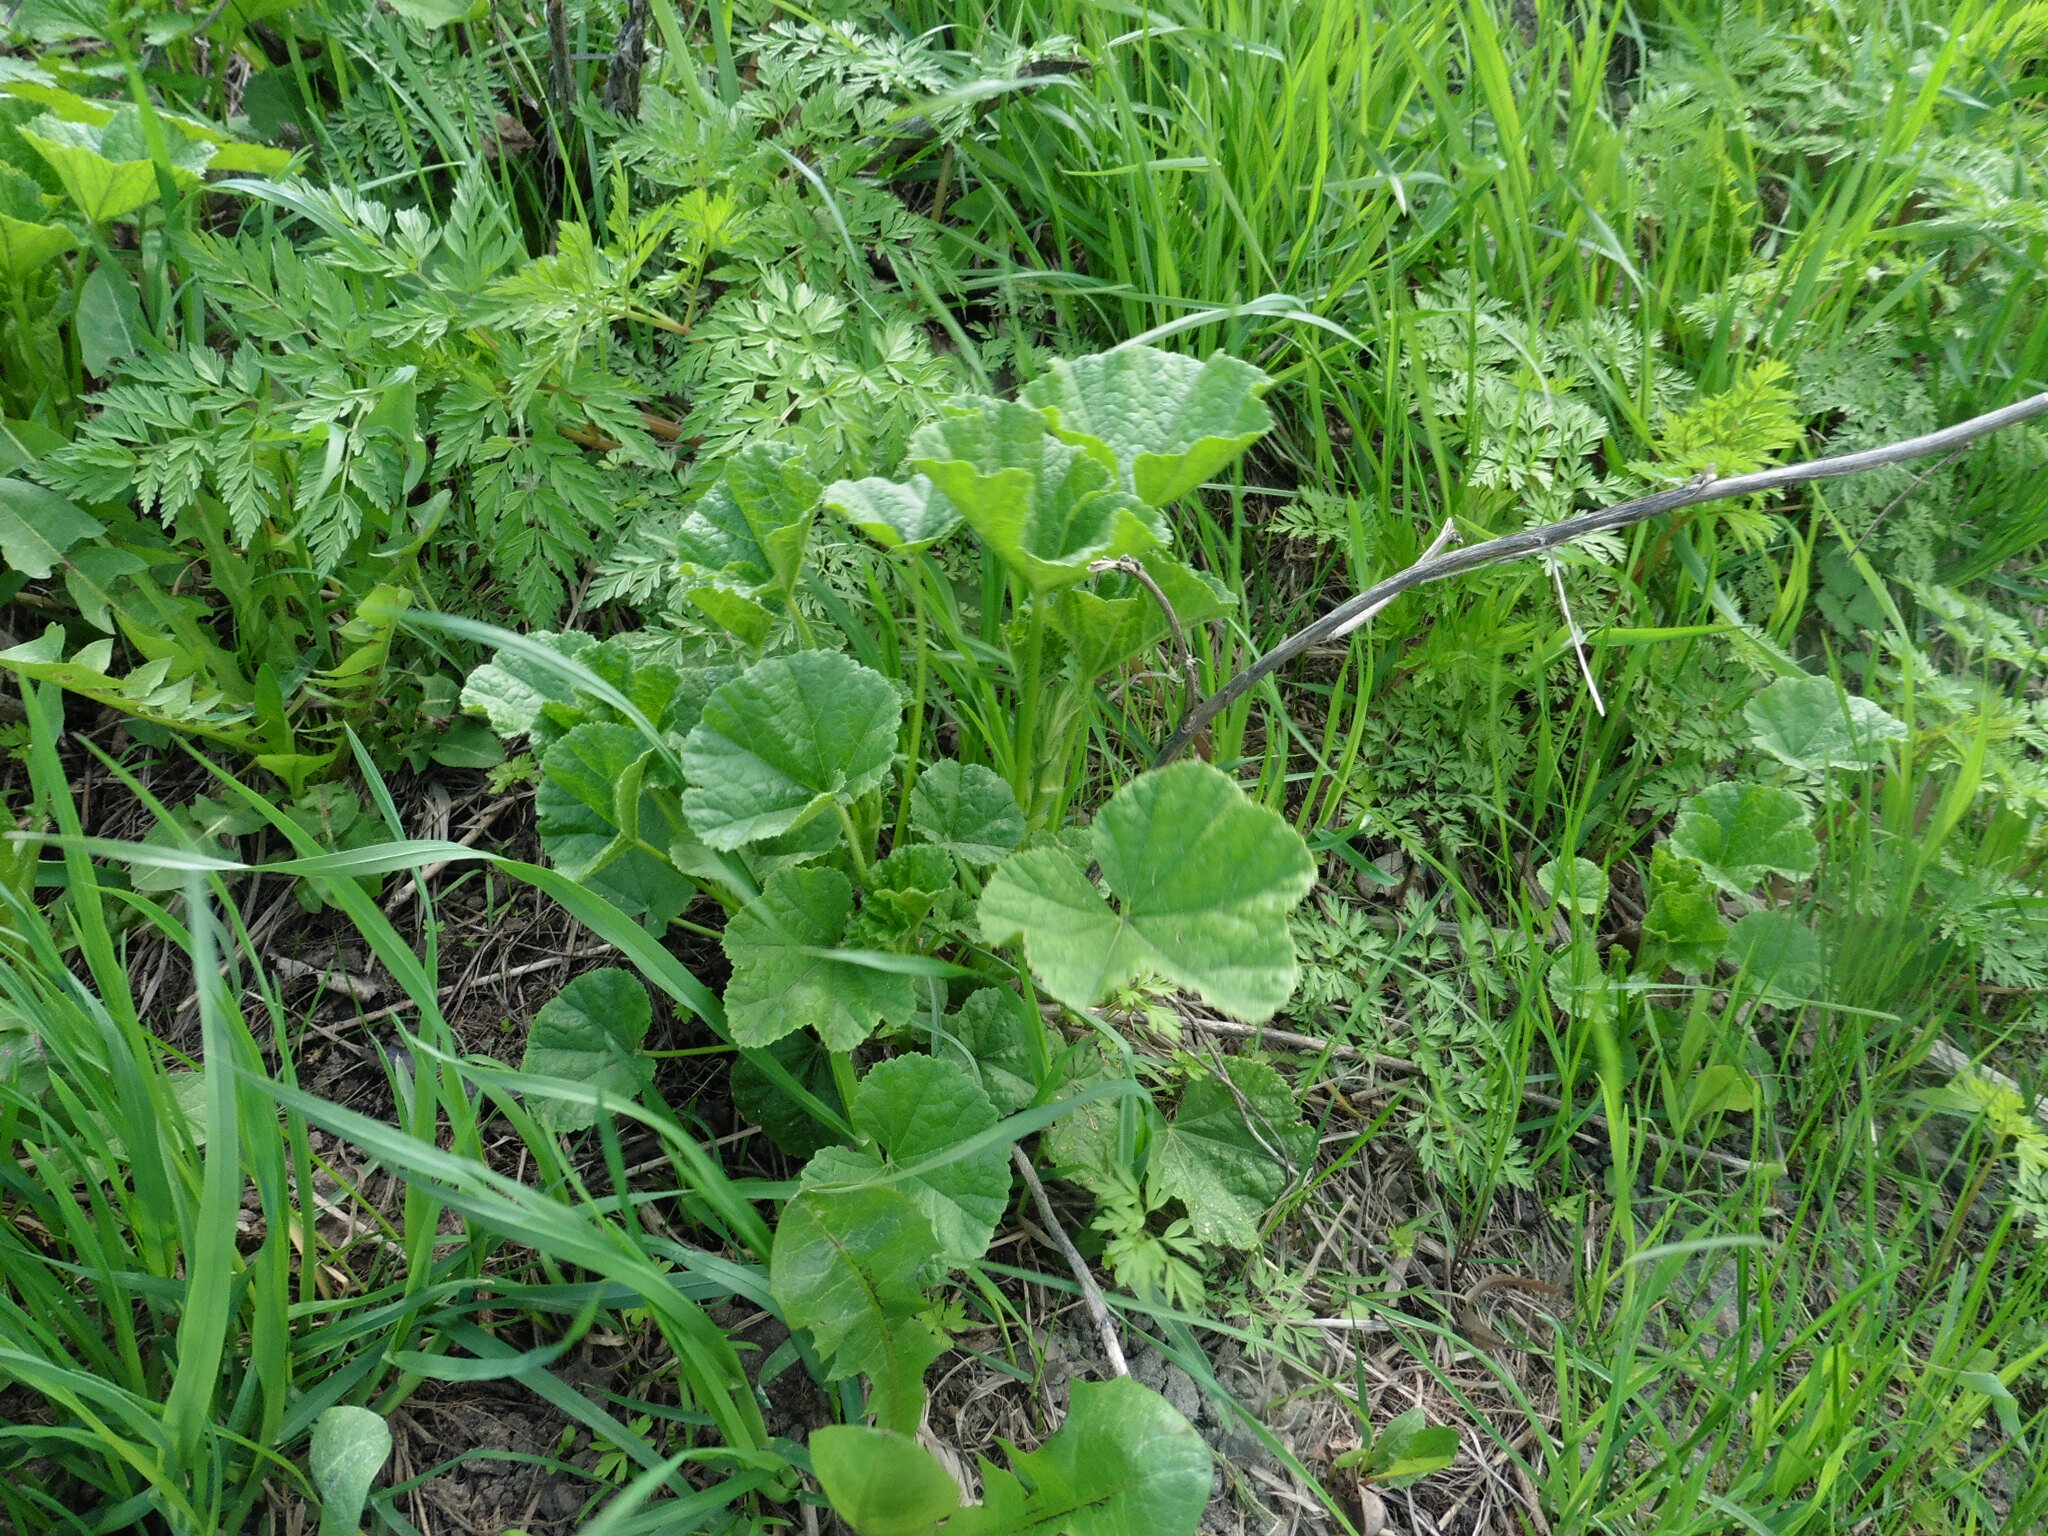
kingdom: Plantae
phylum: Tracheophyta
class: Magnoliopsida
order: Malvales
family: Malvaceae
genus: Malva
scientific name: Malva thuringiaca
